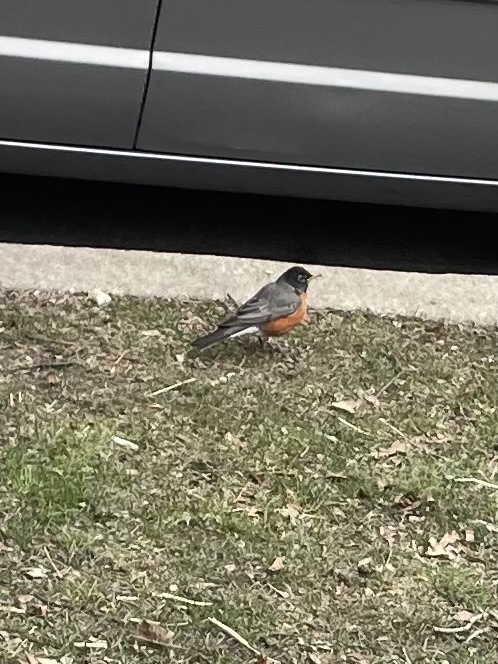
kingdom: Animalia
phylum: Chordata
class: Aves
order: Passeriformes
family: Turdidae
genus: Turdus
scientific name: Turdus migratorius
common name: American robin
